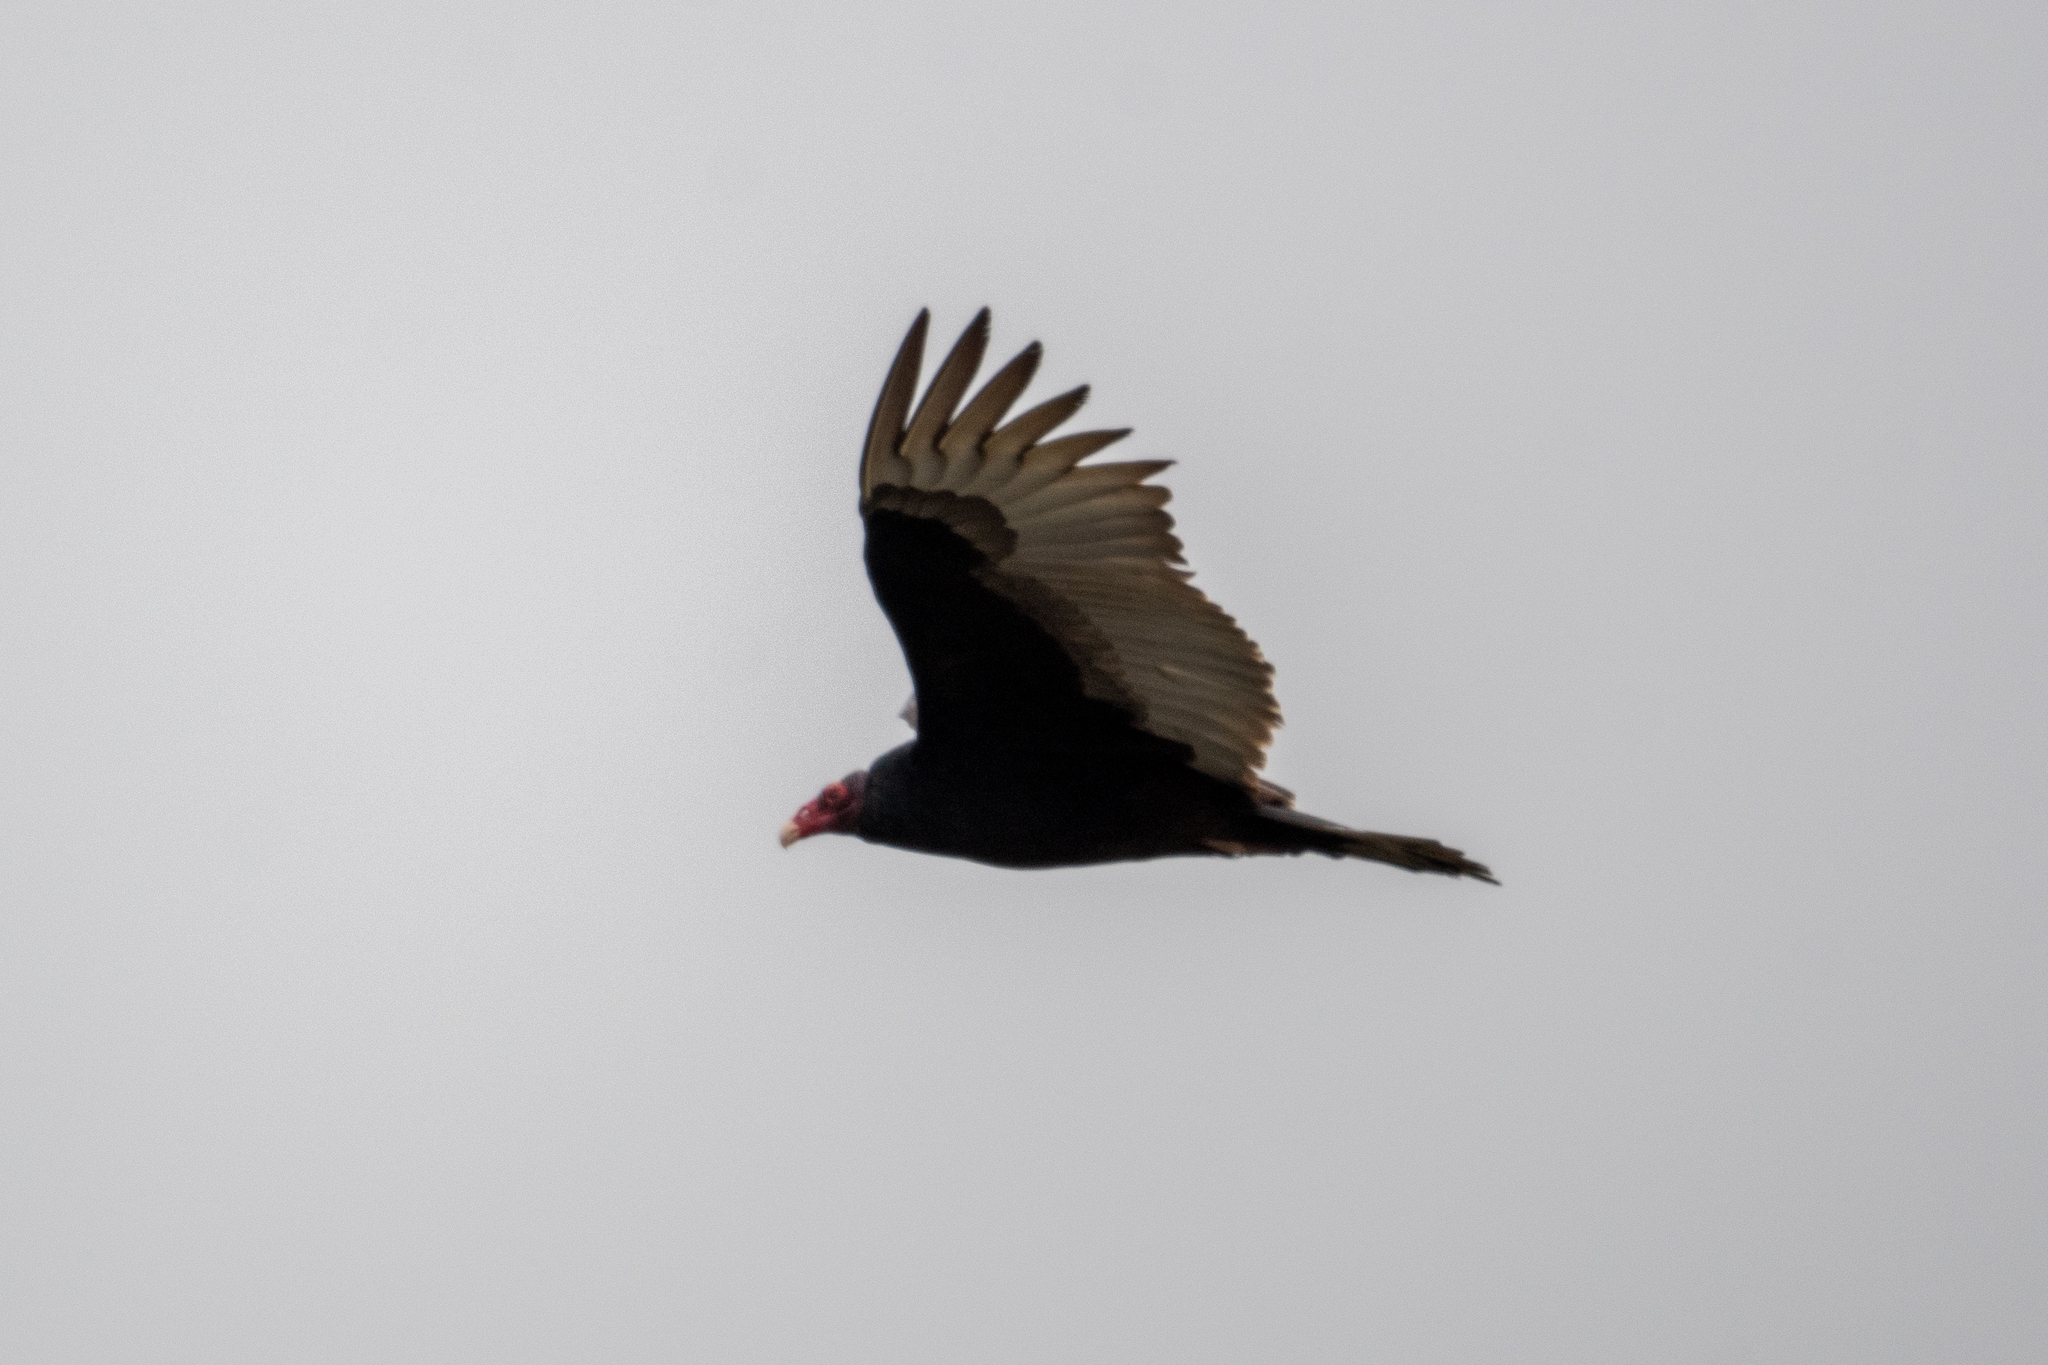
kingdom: Animalia
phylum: Chordata
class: Aves
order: Accipitriformes
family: Cathartidae
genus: Cathartes
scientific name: Cathartes aura
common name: Turkey vulture
